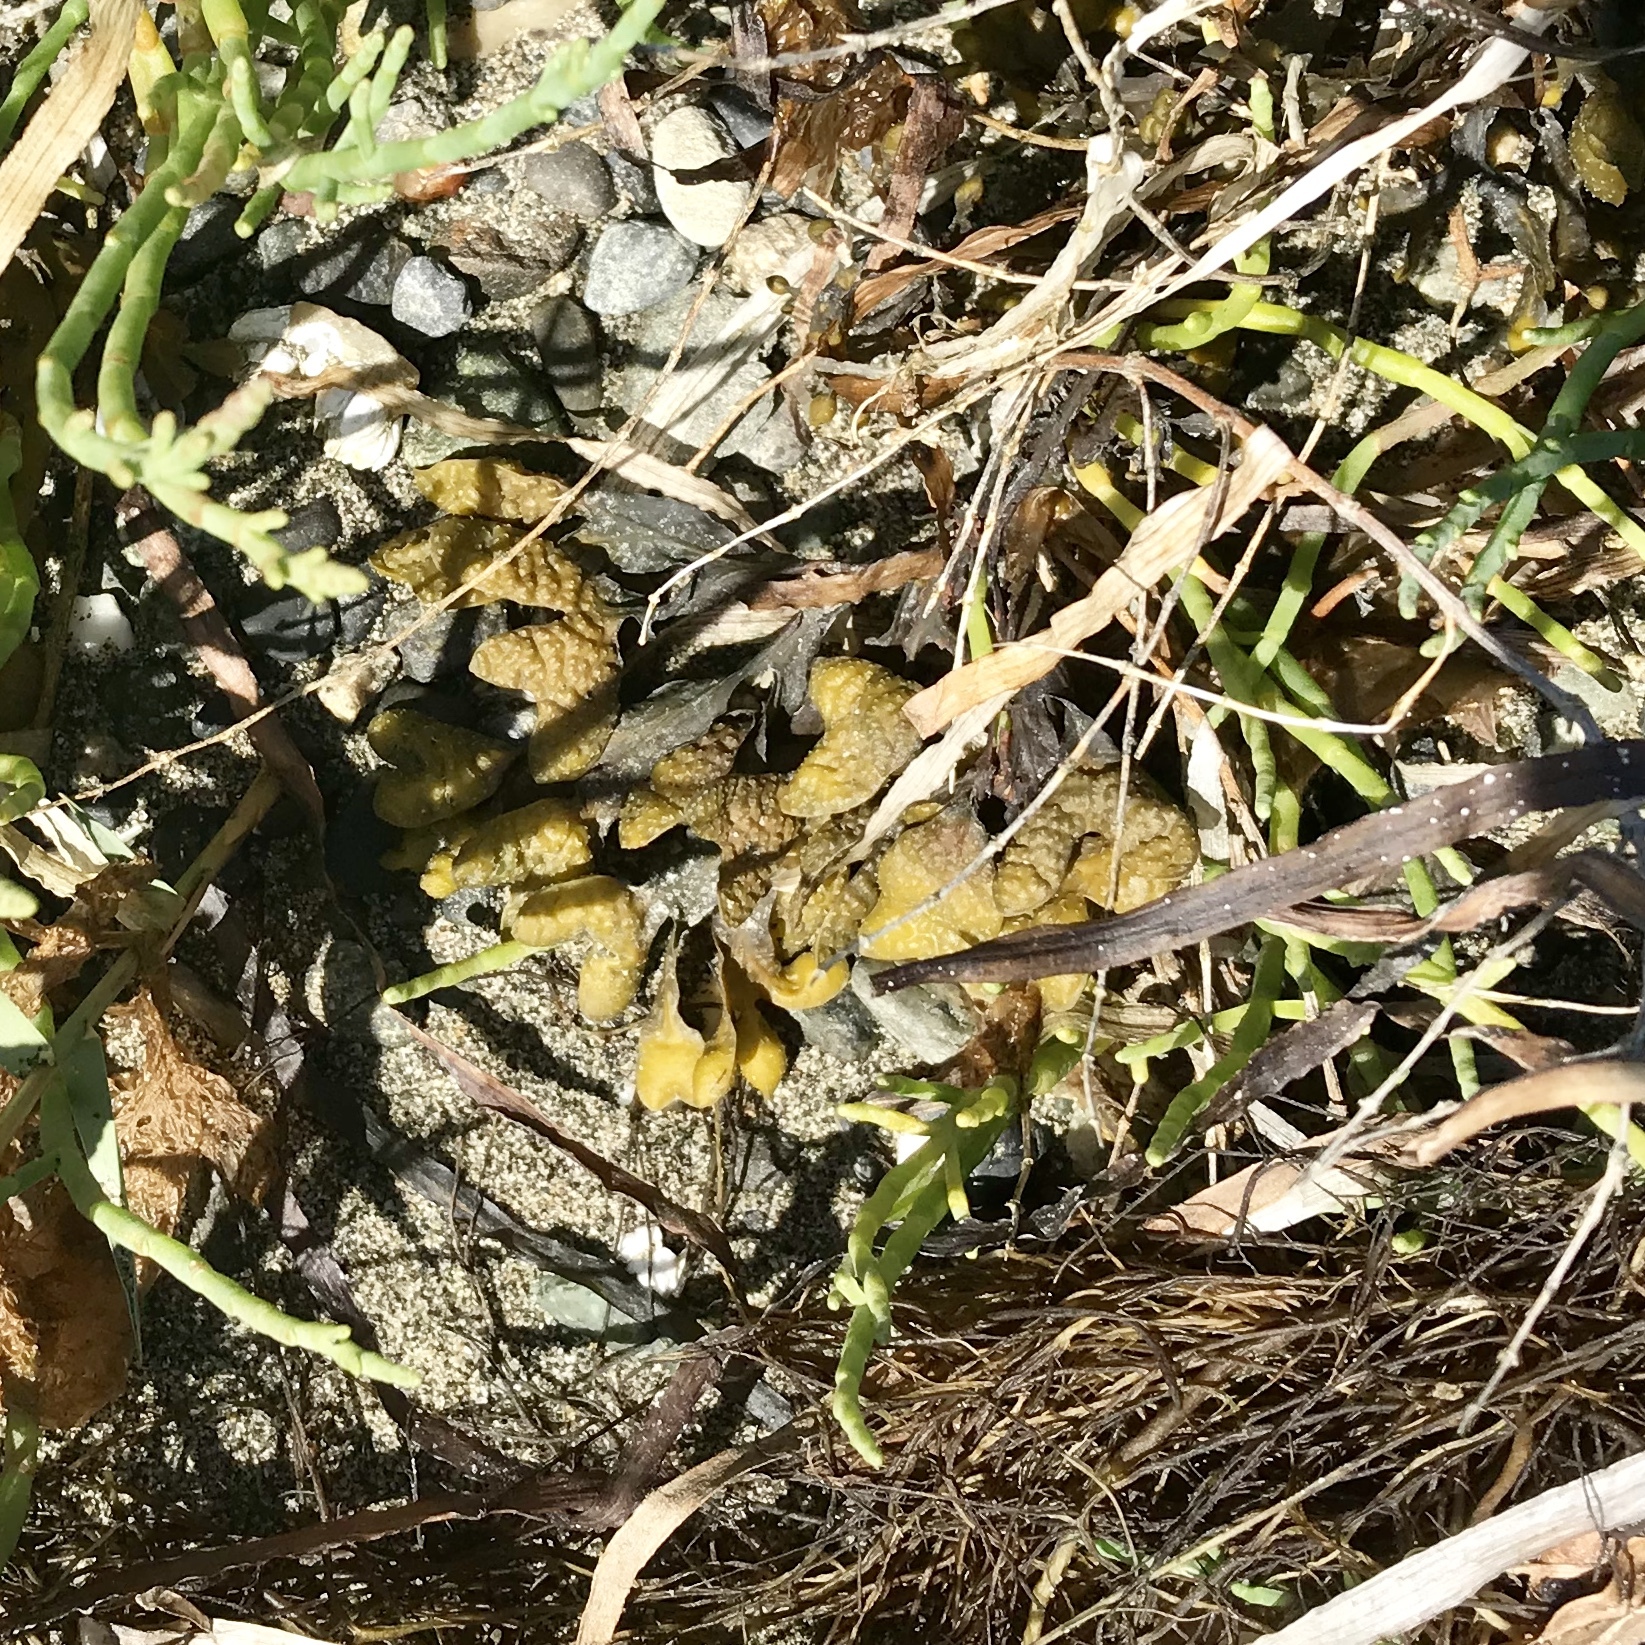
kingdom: Chromista
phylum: Ochrophyta
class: Phaeophyceae
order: Fucales
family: Fucaceae
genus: Fucus
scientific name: Fucus distichus
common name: Rockweed
